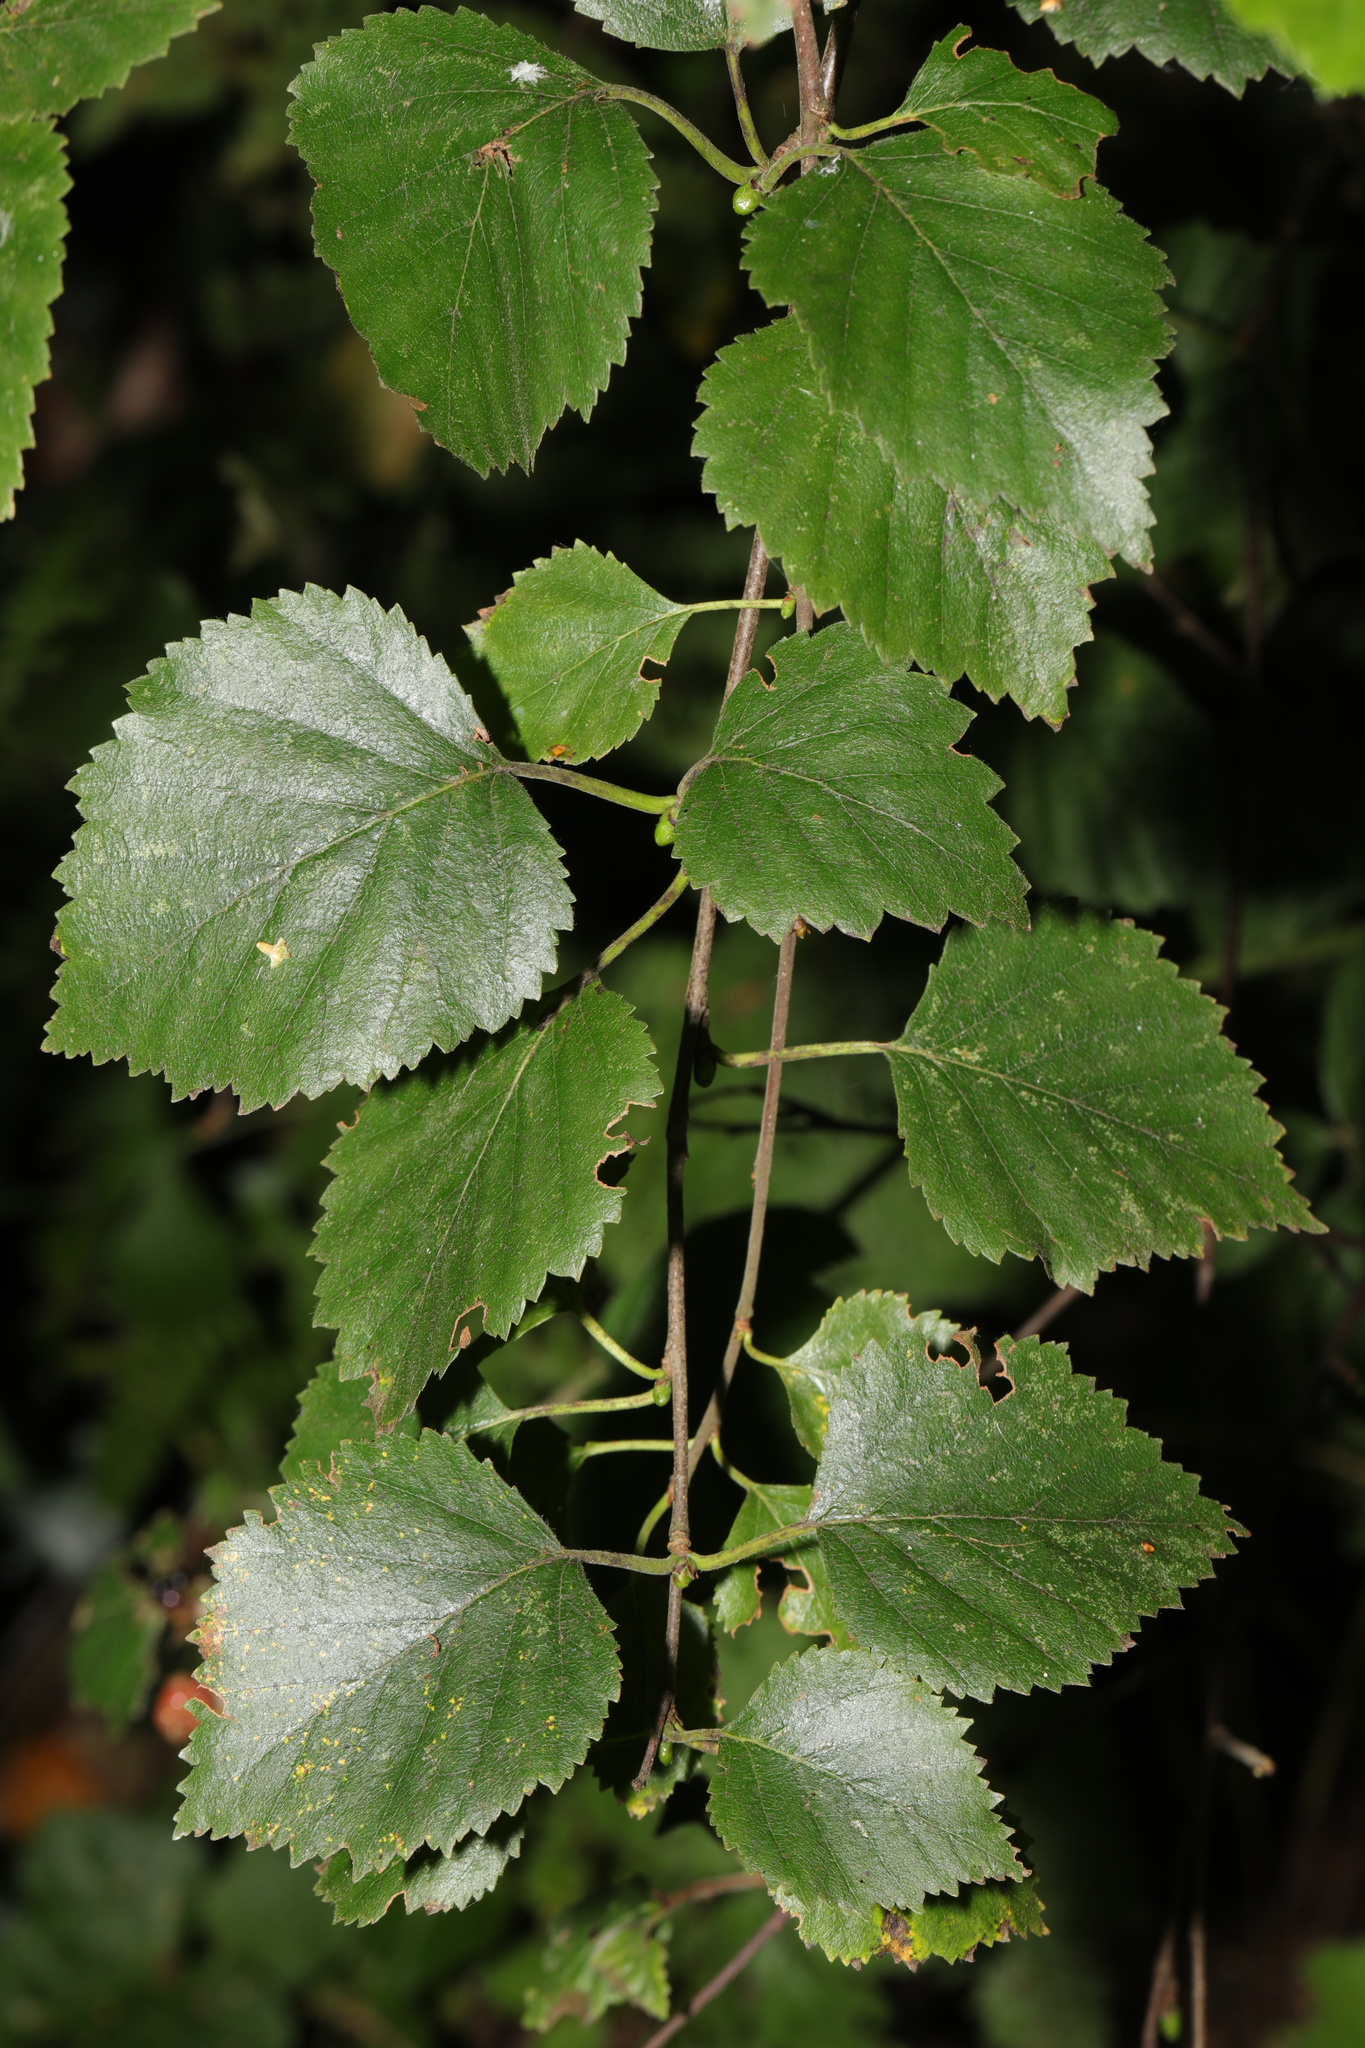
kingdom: Plantae
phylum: Tracheophyta
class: Magnoliopsida
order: Fagales
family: Betulaceae
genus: Betula
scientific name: Betula pubescens
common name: Downy birch
